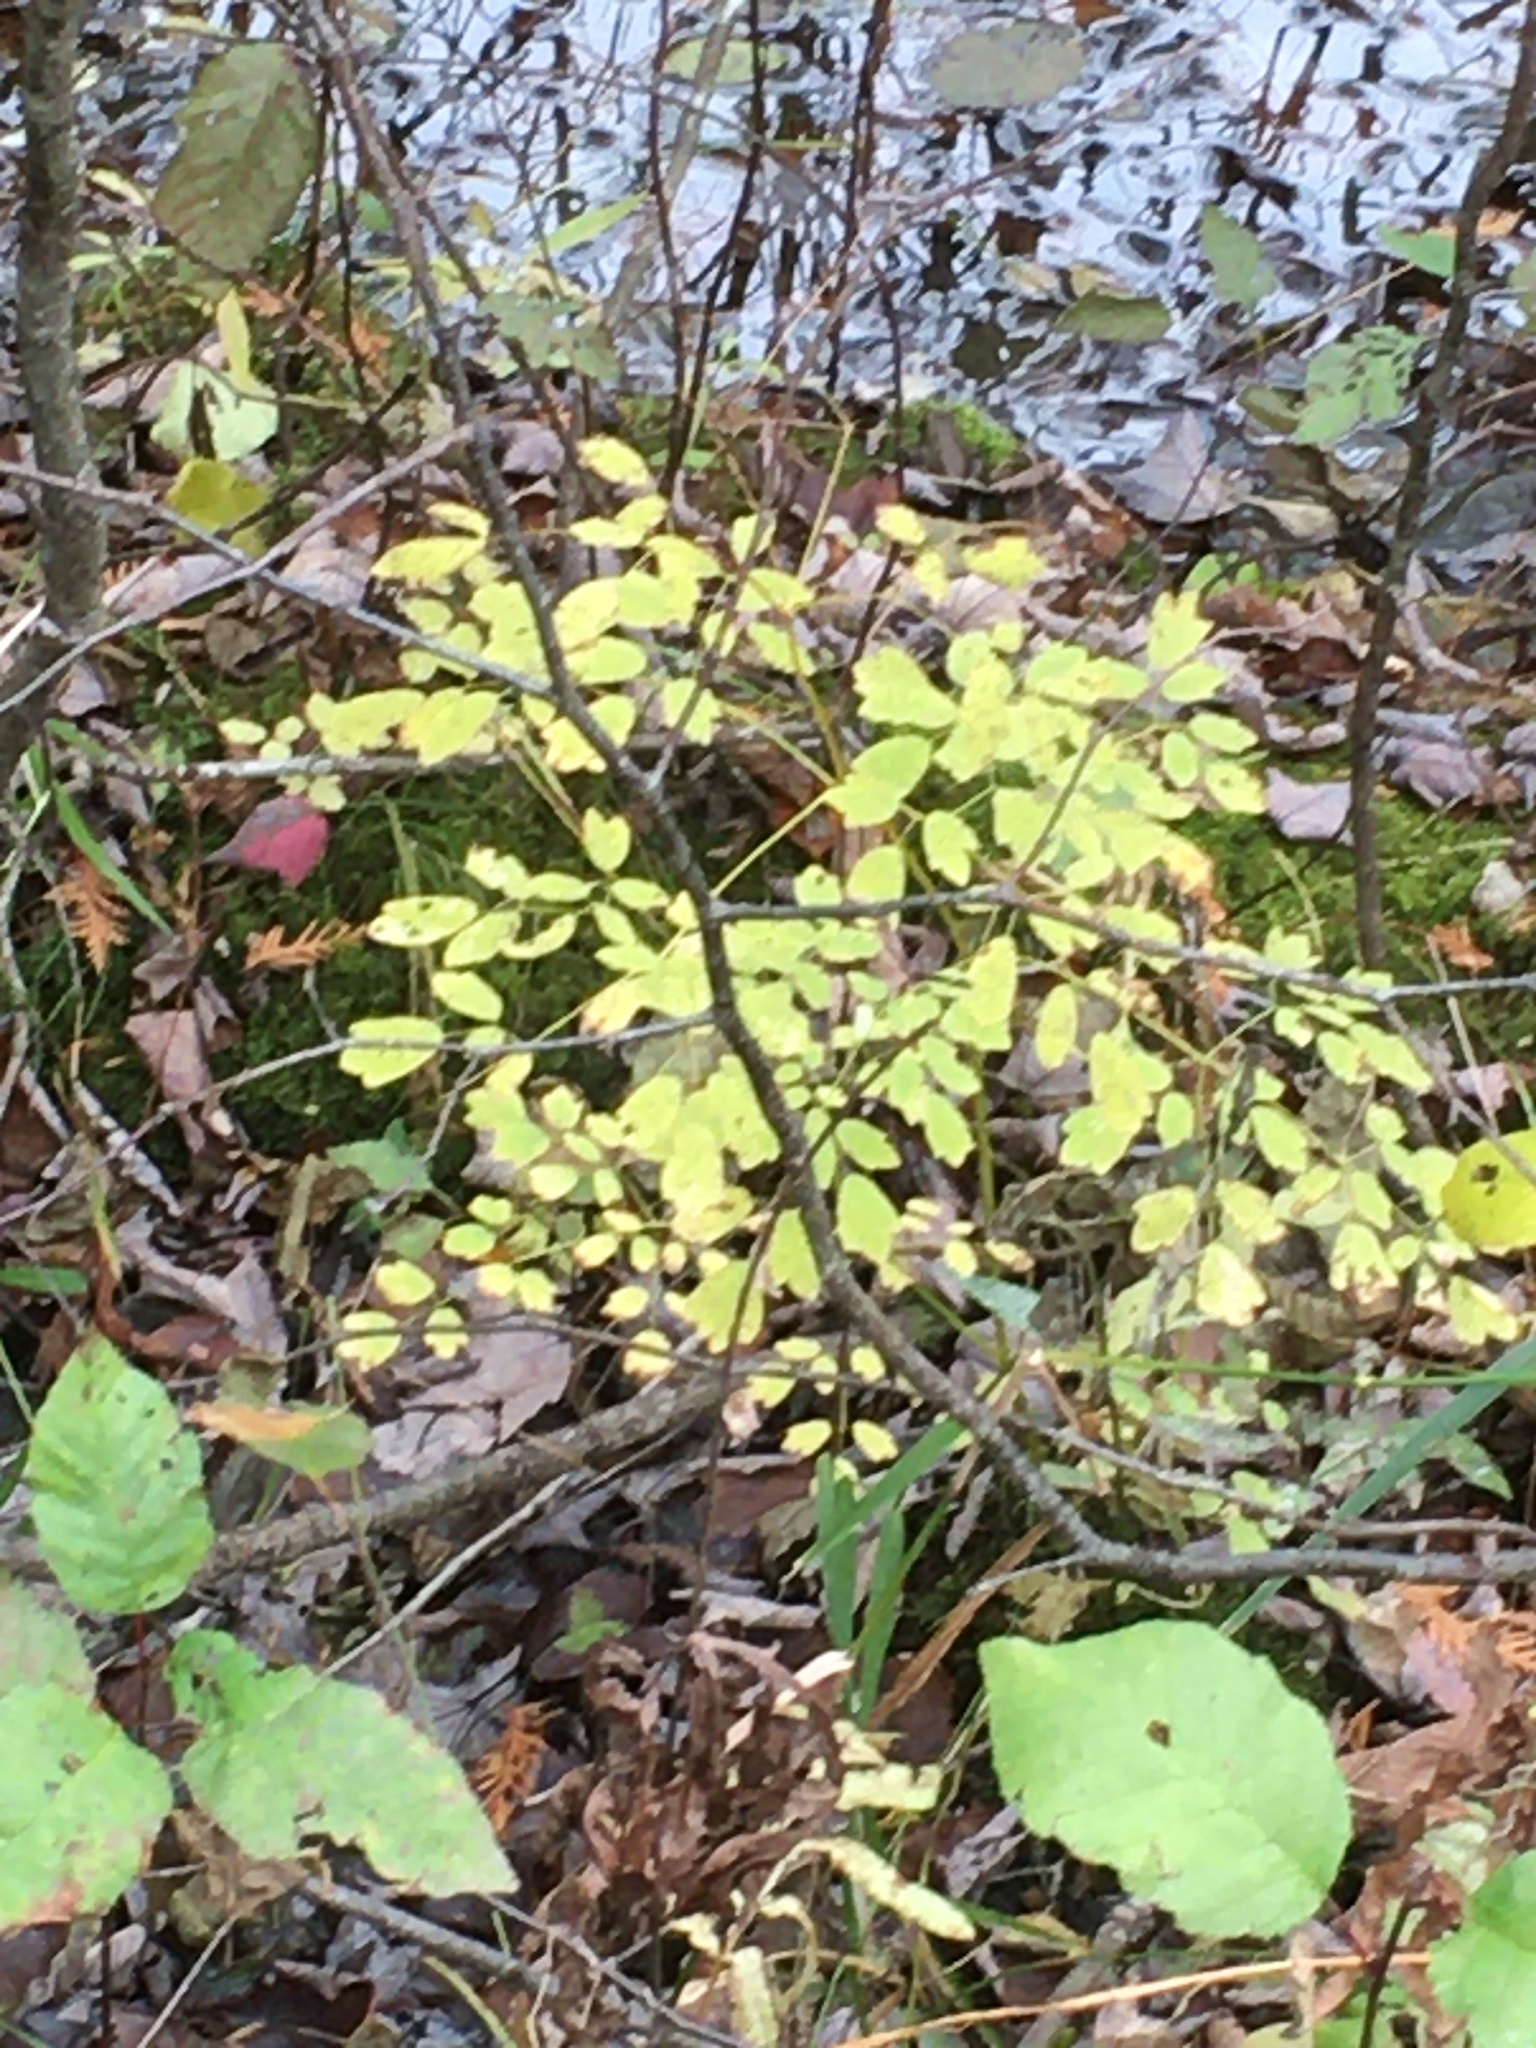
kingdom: Plantae
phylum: Tracheophyta
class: Magnoliopsida
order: Ranunculales
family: Ranunculaceae
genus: Thalictrum
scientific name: Thalictrum pubescens
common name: King-of-the-meadow
